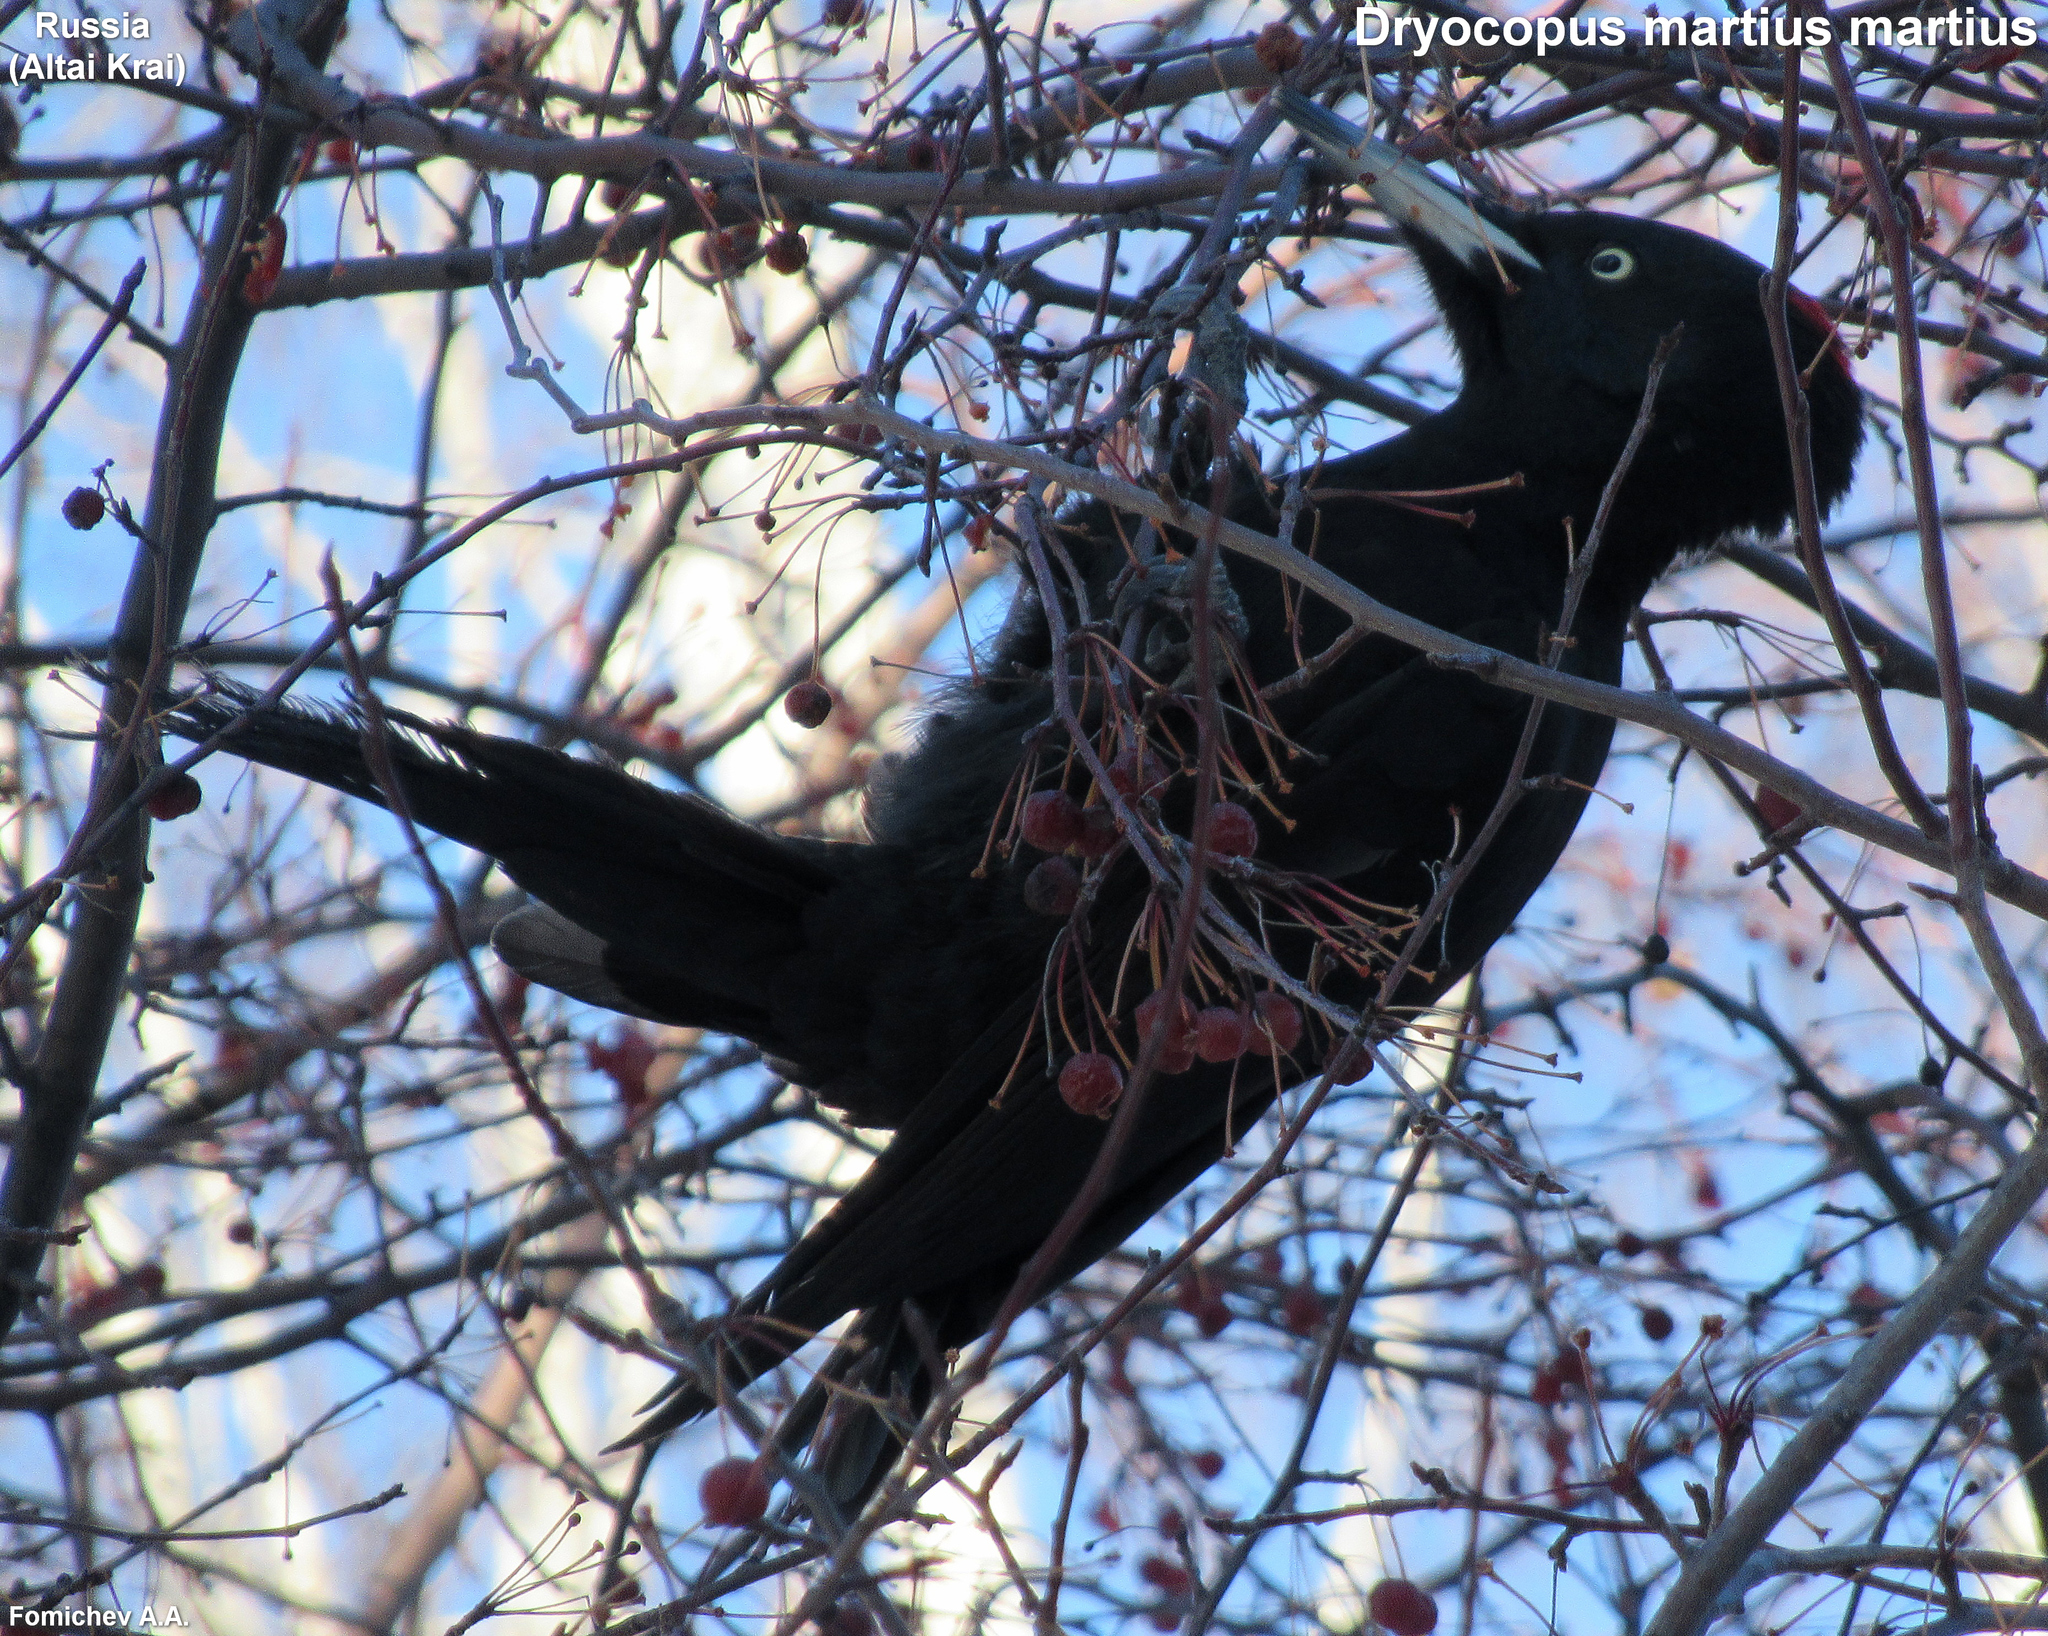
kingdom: Animalia
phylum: Chordata
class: Aves
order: Piciformes
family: Picidae
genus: Dryocopus
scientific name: Dryocopus martius
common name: Black woodpecker
